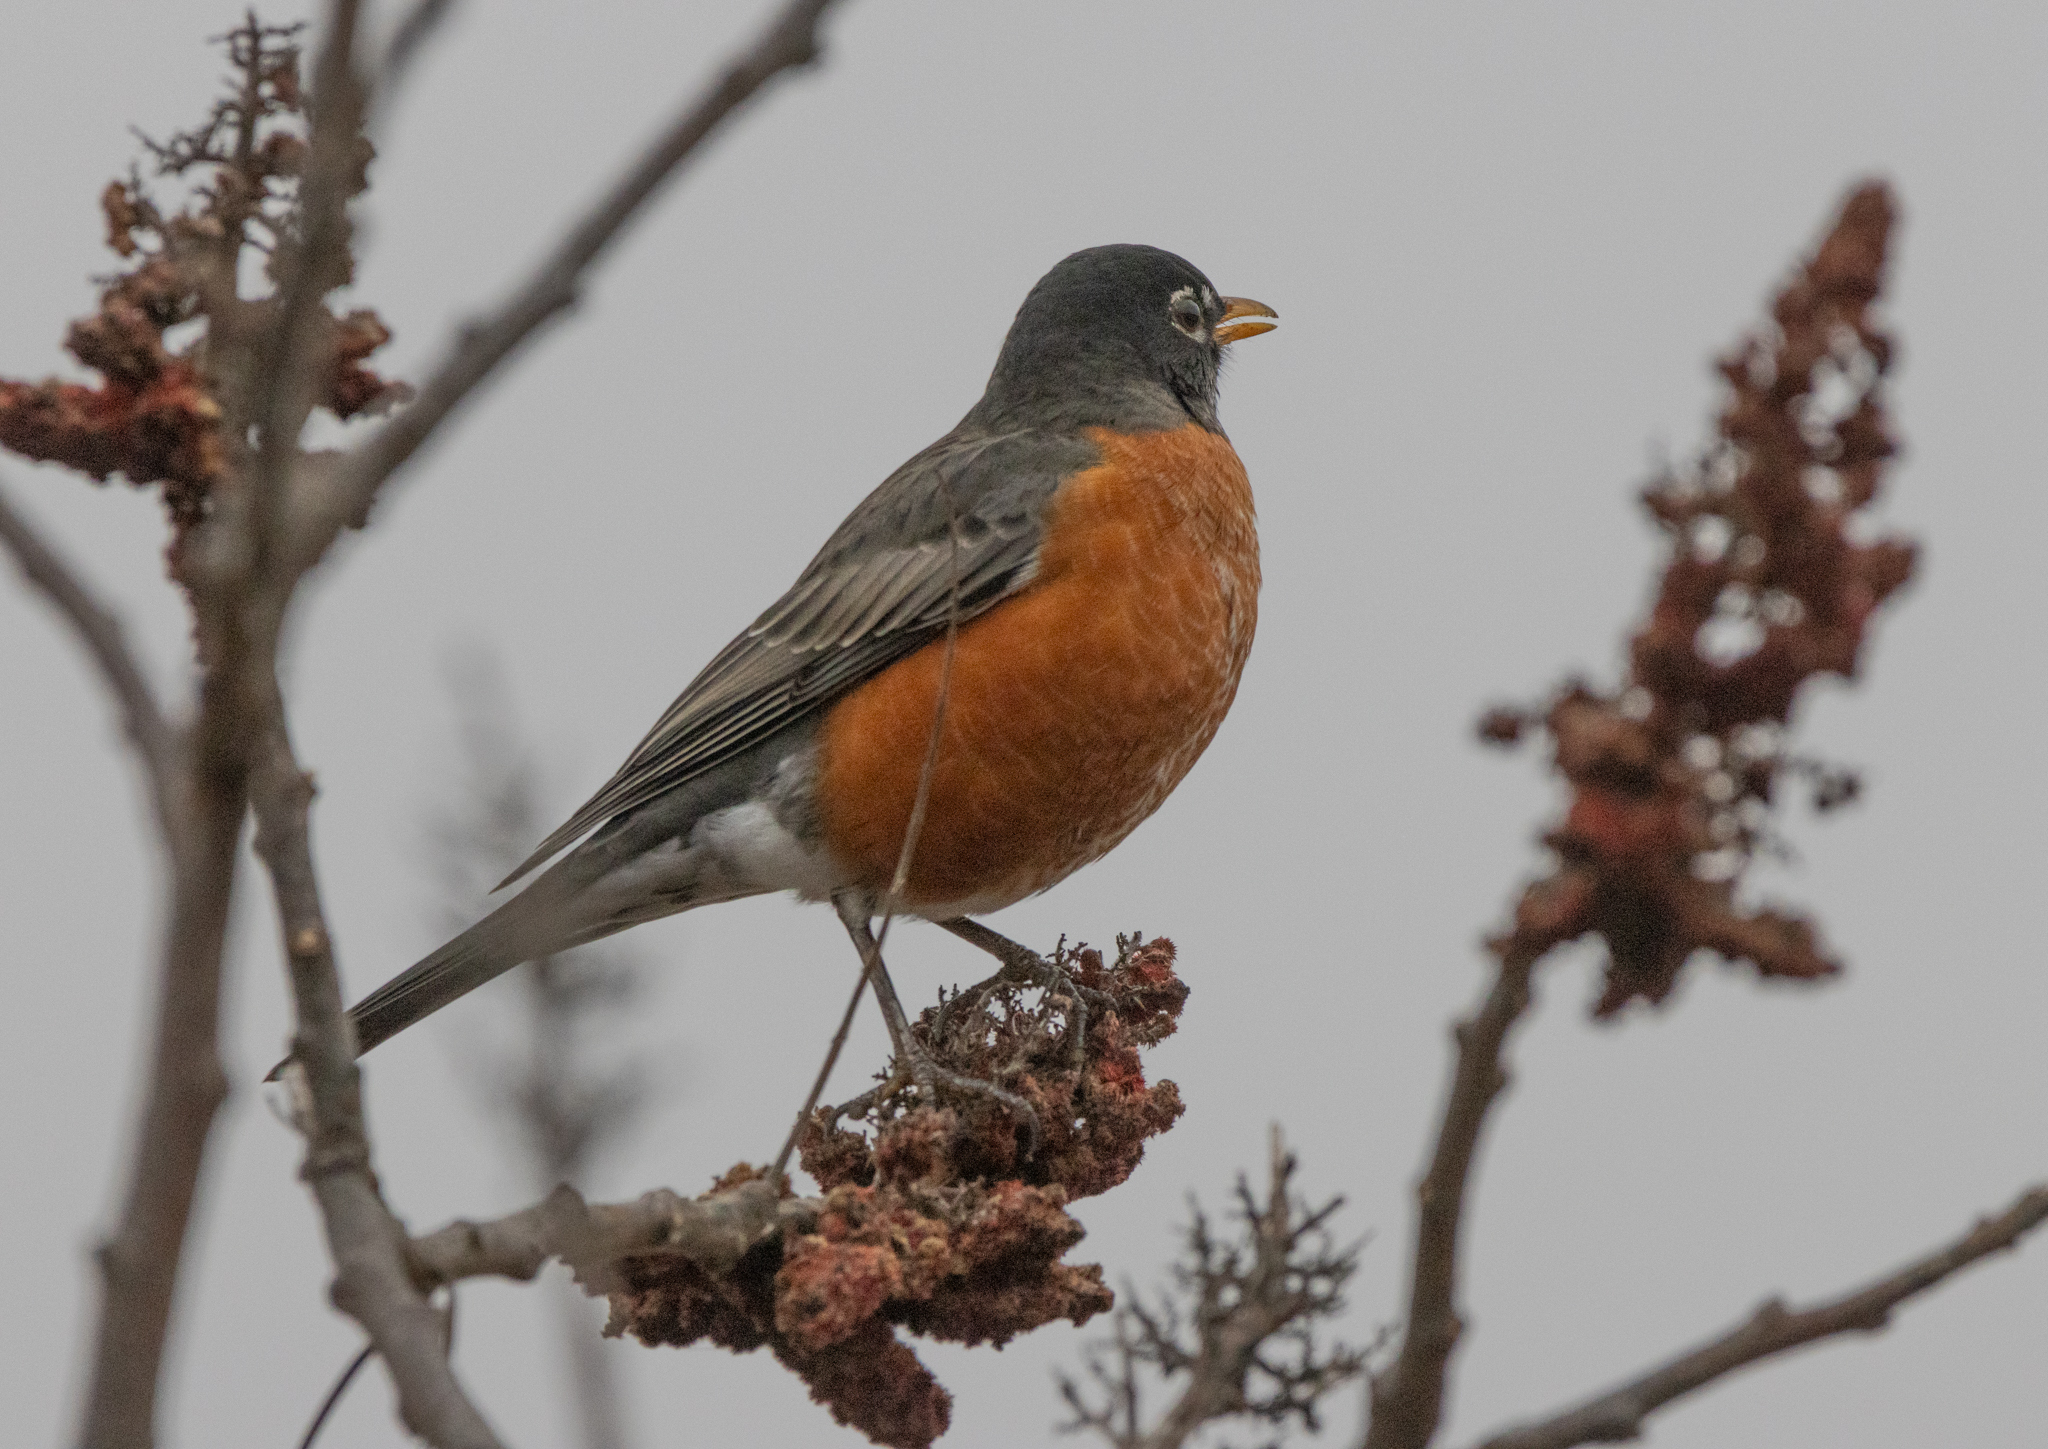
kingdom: Animalia
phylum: Chordata
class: Aves
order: Passeriformes
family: Turdidae
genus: Turdus
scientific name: Turdus migratorius
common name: American robin
